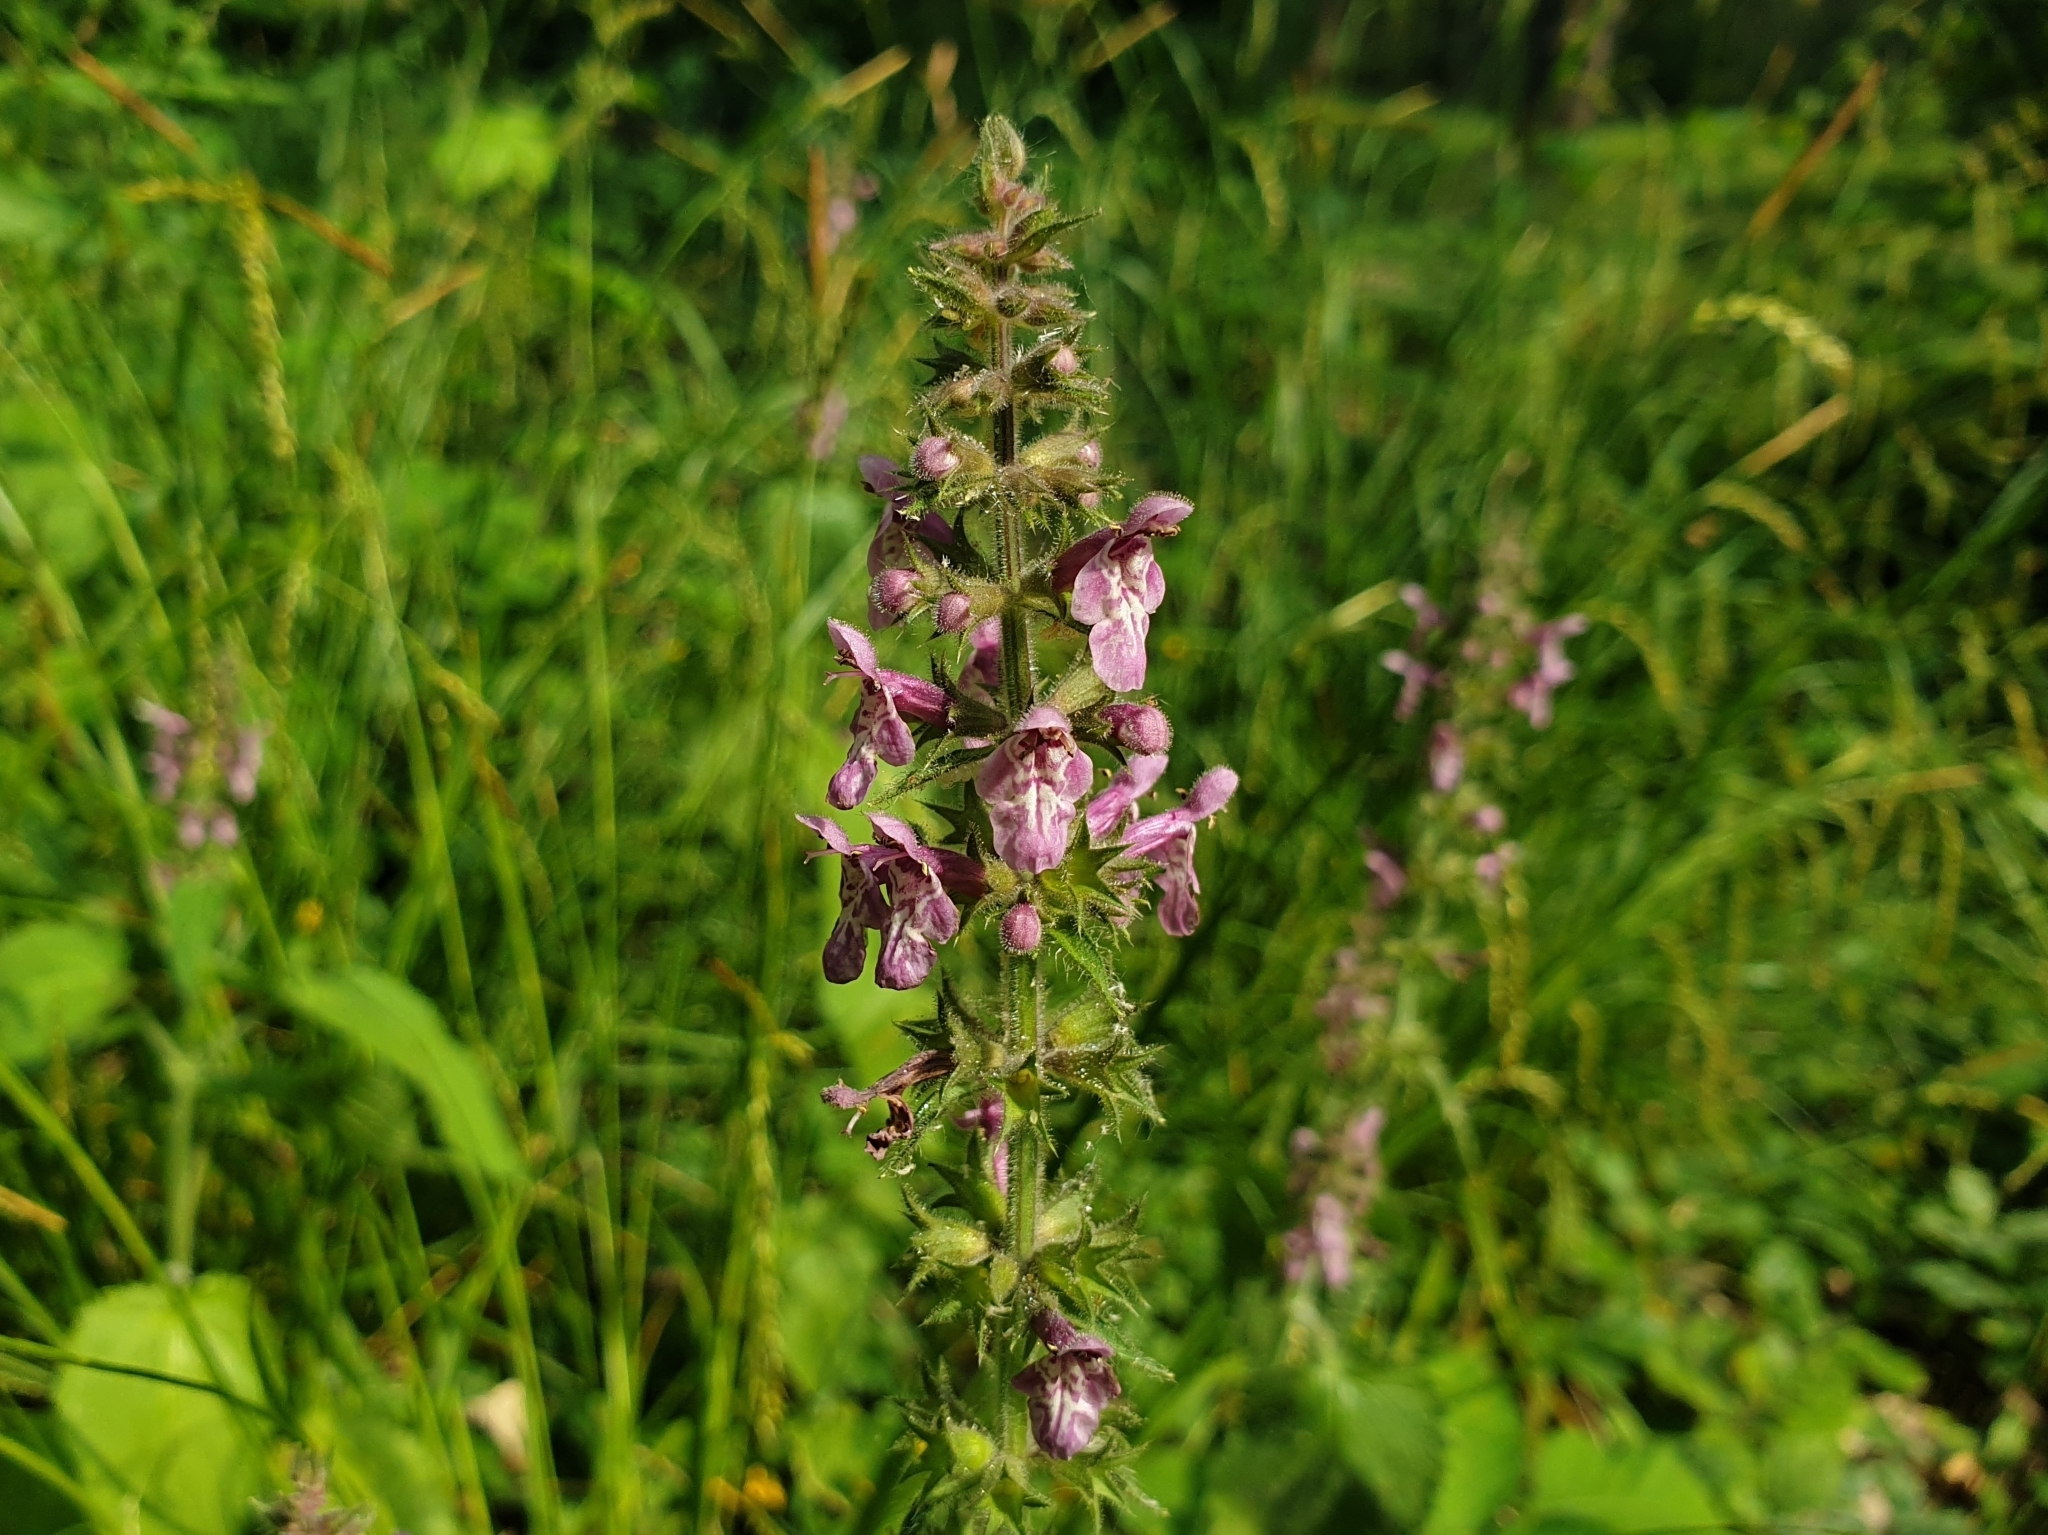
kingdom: Plantae
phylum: Tracheophyta
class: Magnoliopsida
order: Lamiales
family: Lamiaceae
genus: Stachys
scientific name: Stachys sylvatica
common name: Hedge woundwort
